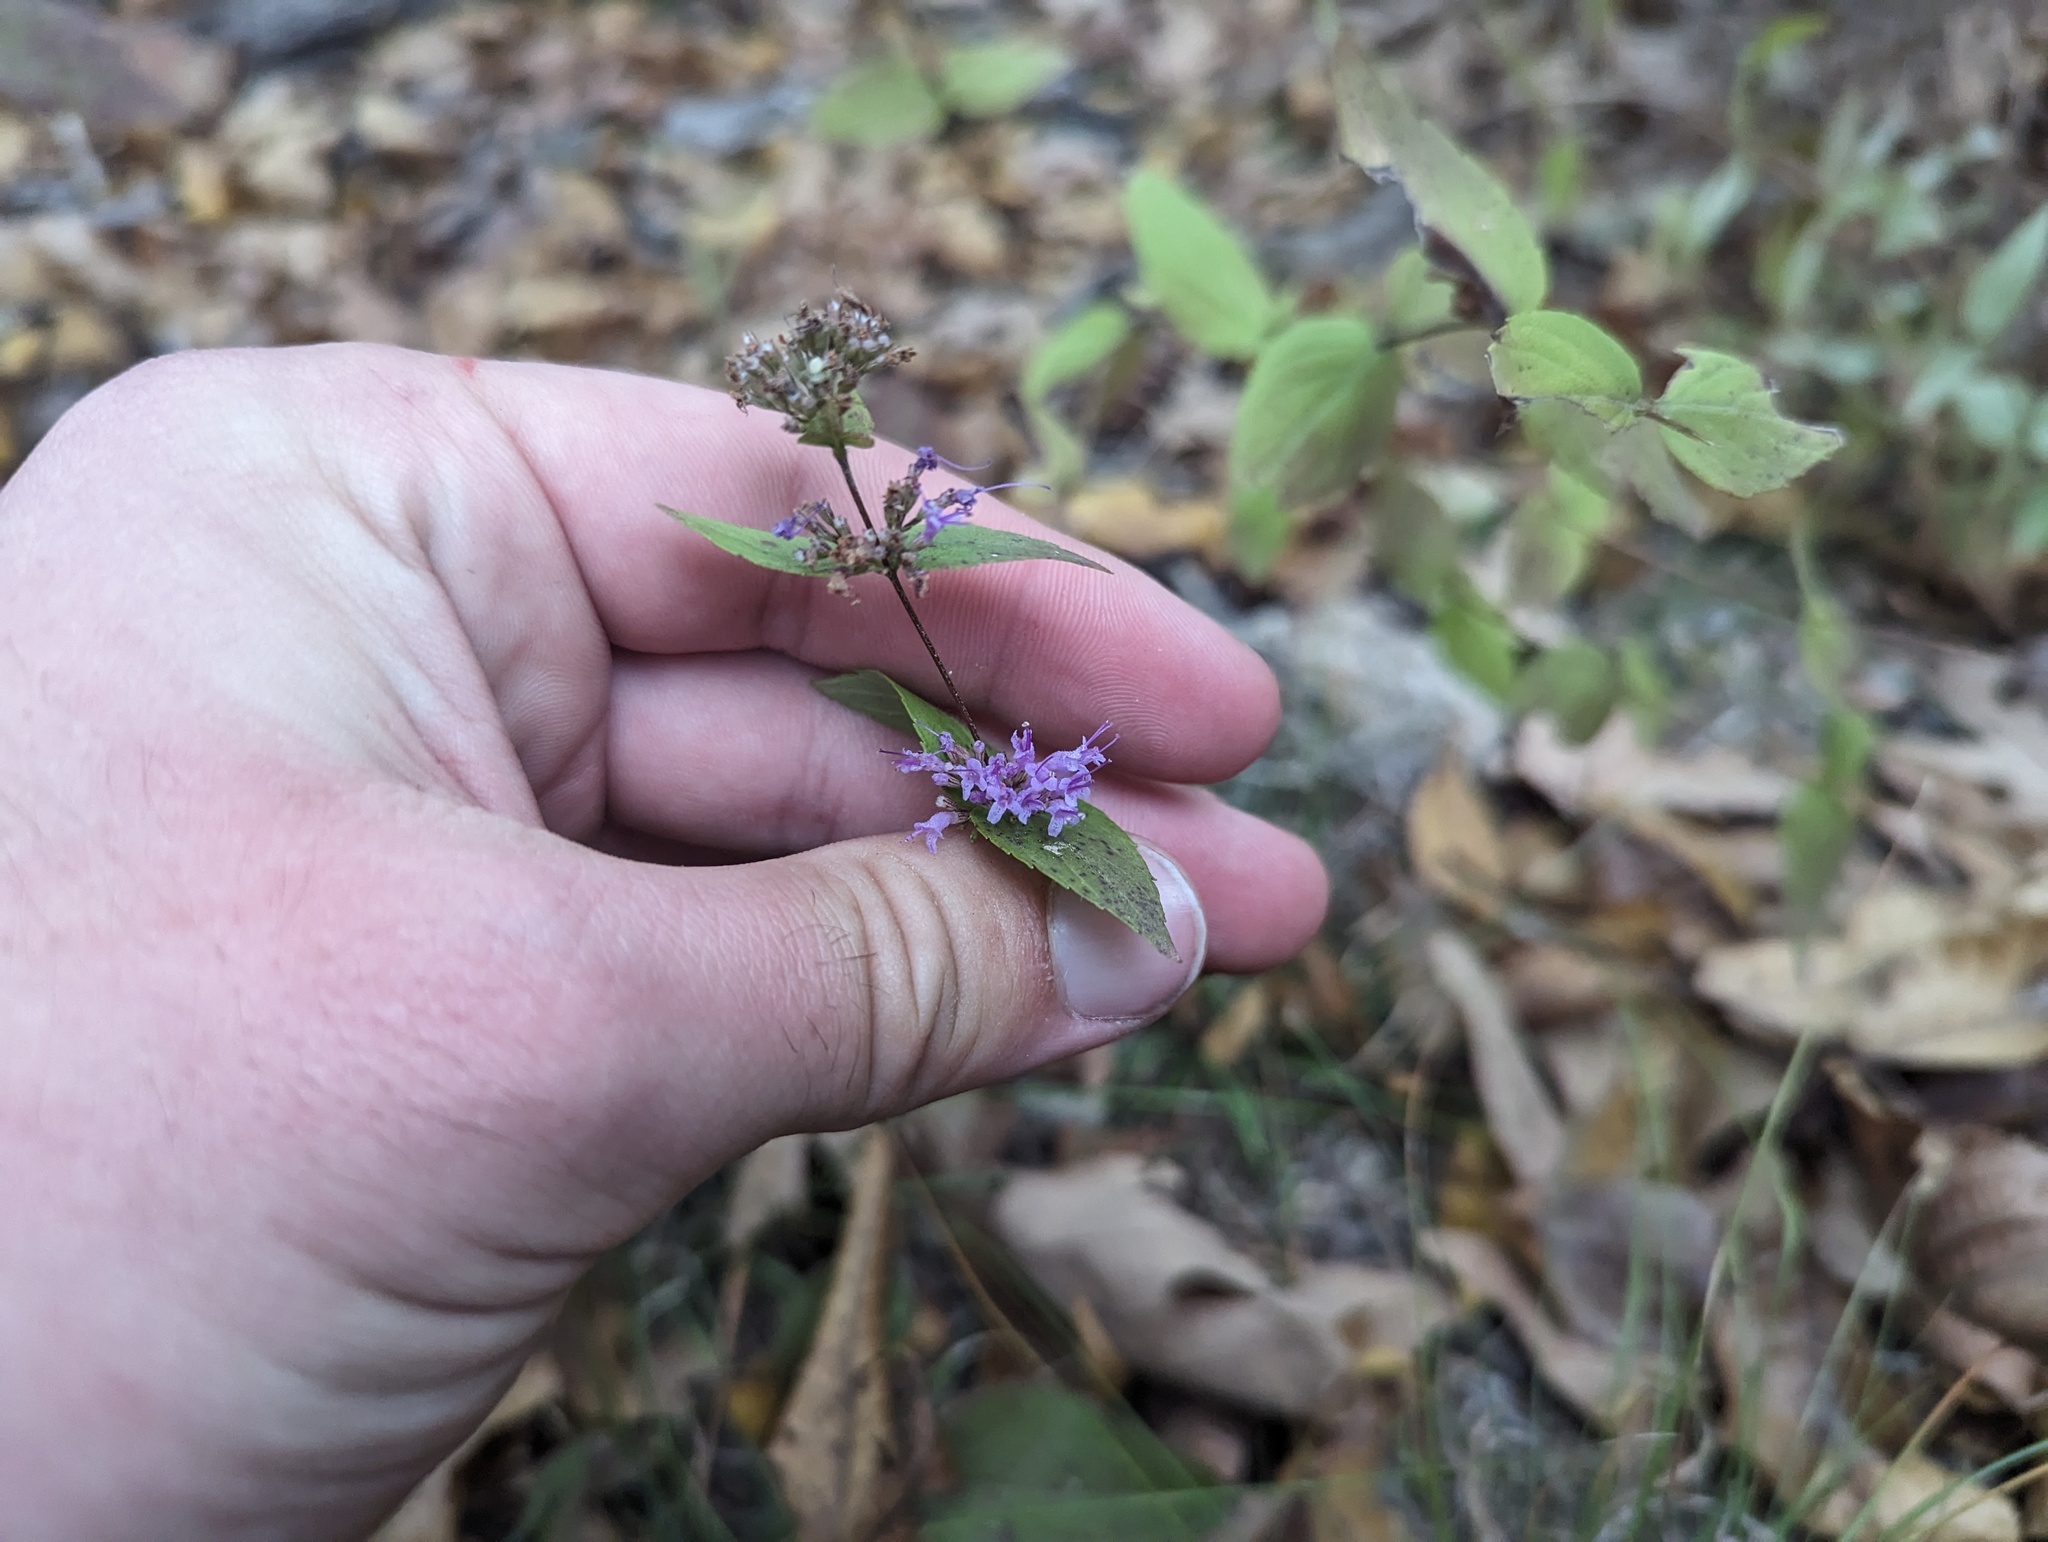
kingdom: Plantae
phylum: Tracheophyta
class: Magnoliopsida
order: Lamiales
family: Lamiaceae
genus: Cunila
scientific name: Cunila origanoides
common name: American dittany
